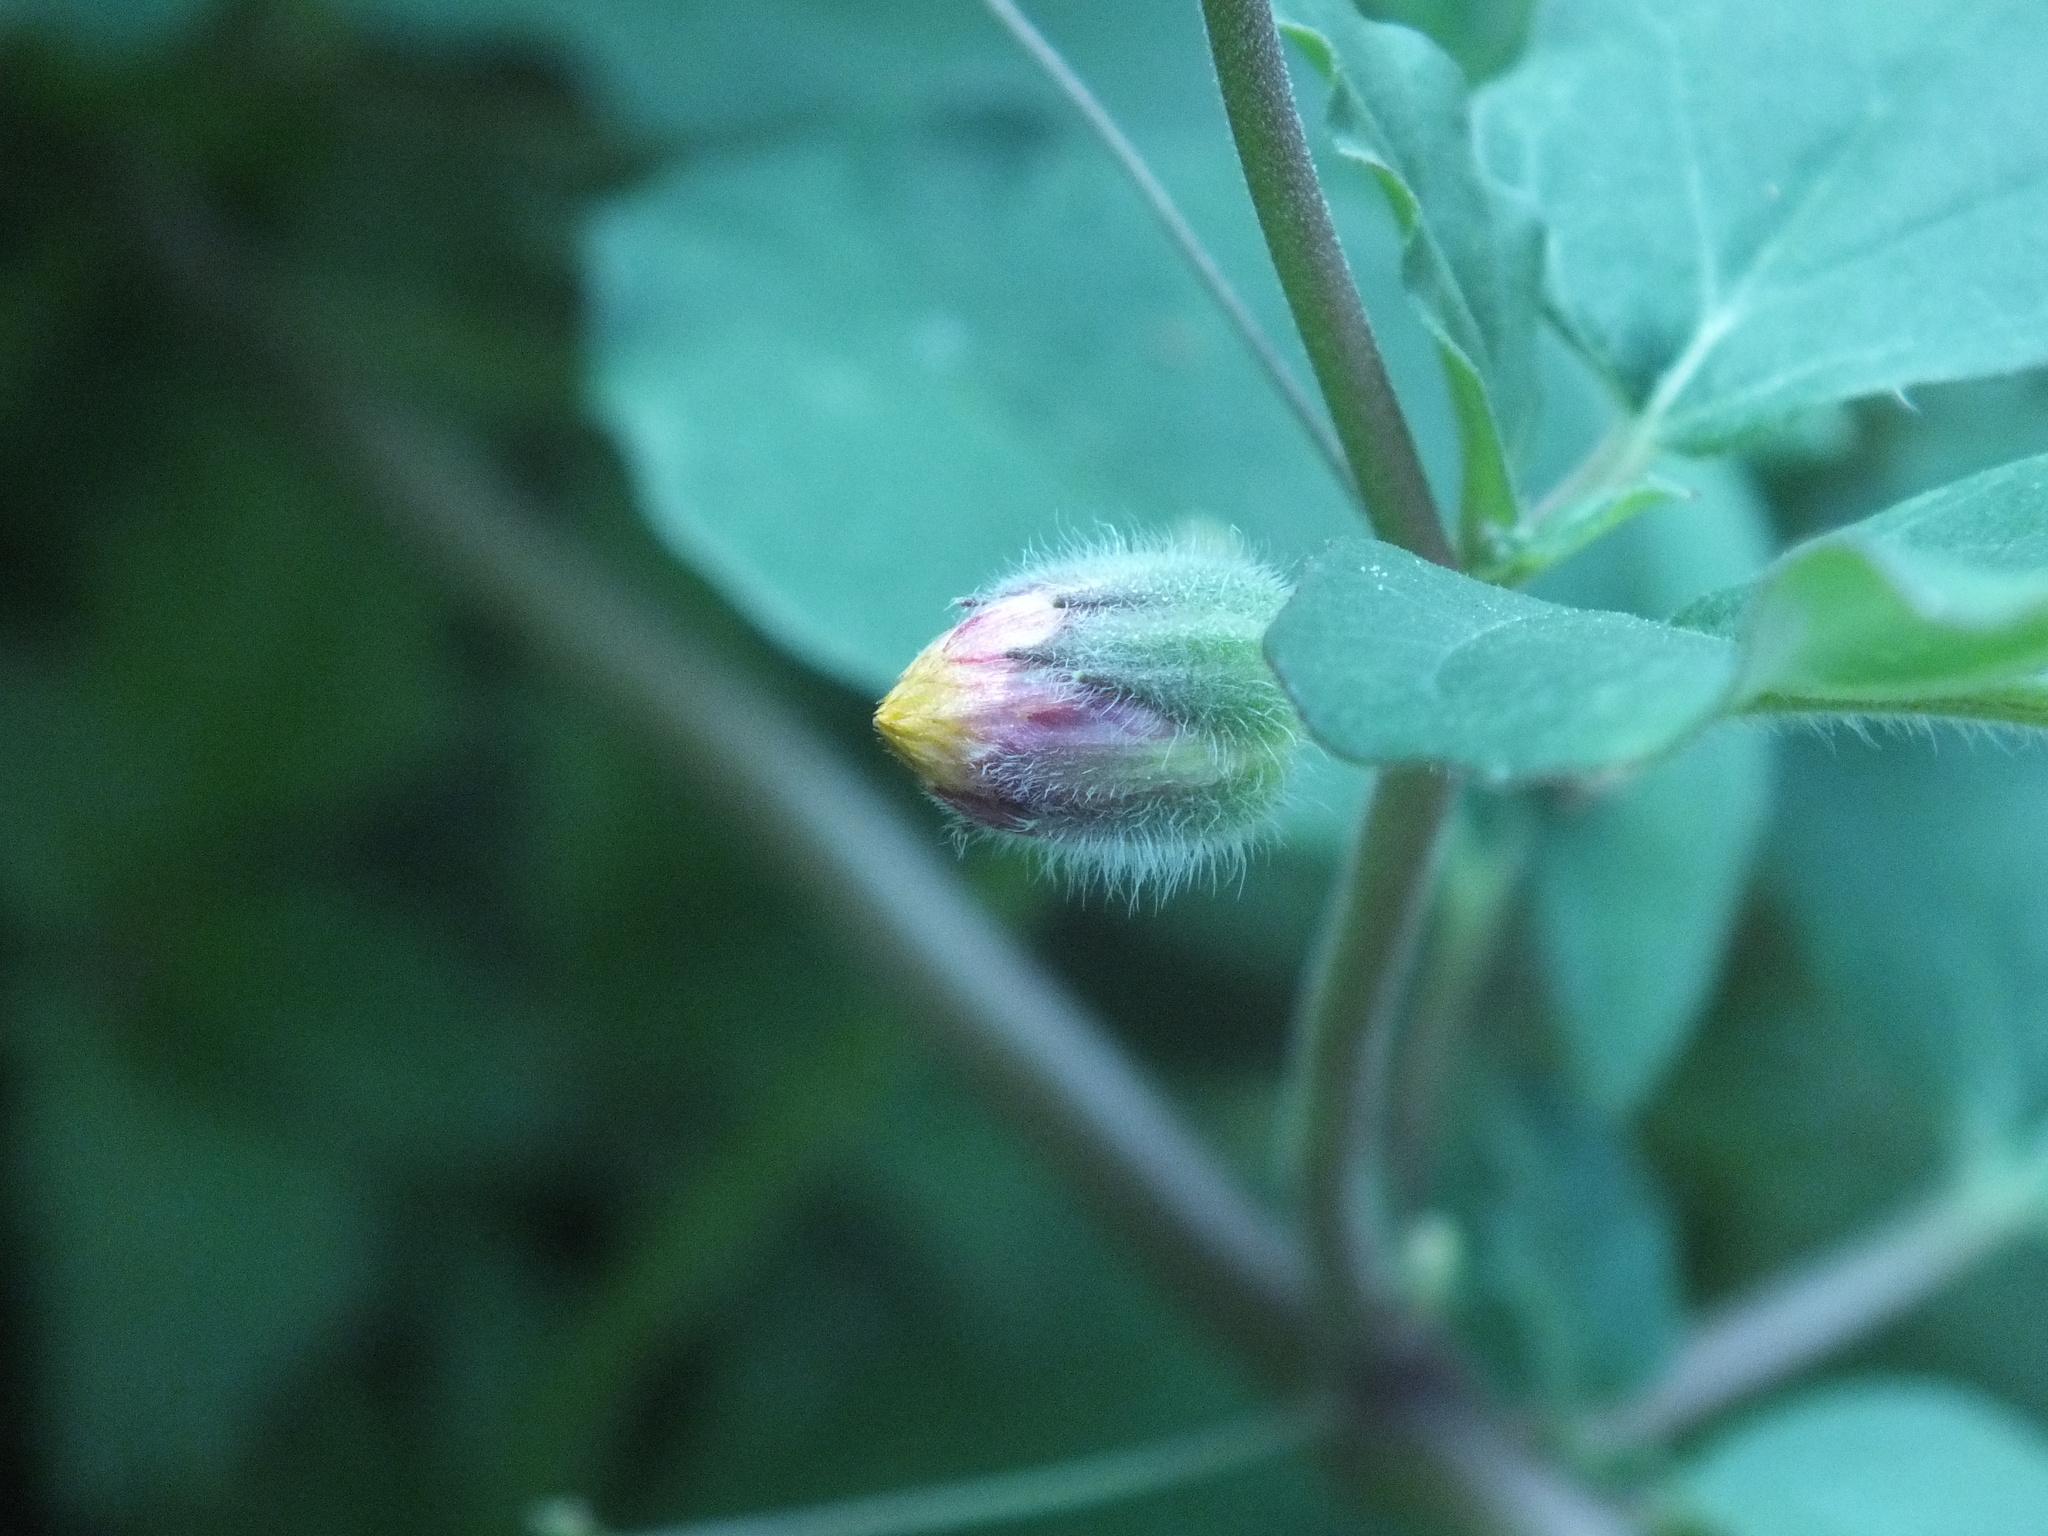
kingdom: Plantae
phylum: Tracheophyta
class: Magnoliopsida
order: Asterales
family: Asteraceae
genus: Tridax
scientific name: Tridax procumbens
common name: Coatbuttons
